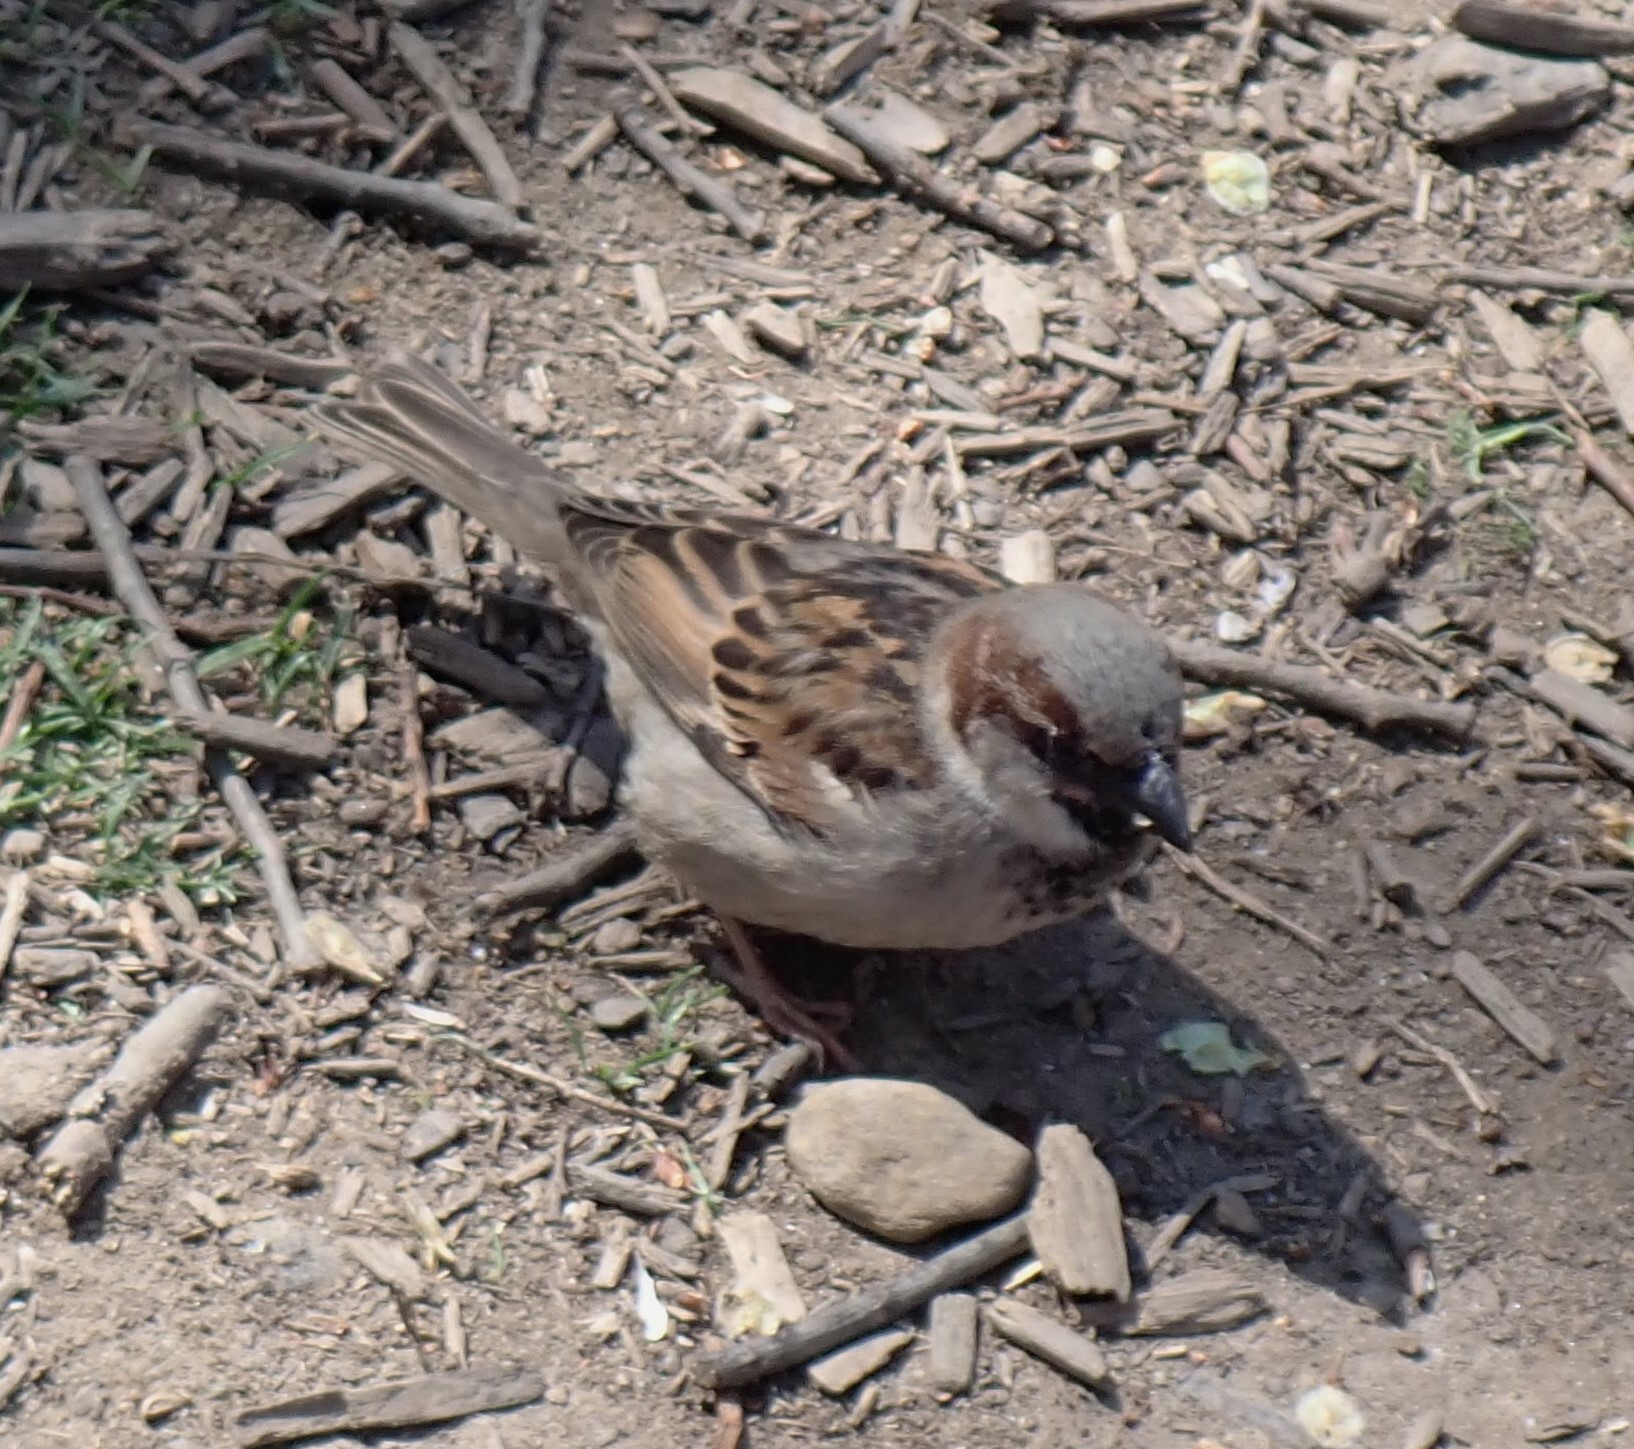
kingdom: Animalia
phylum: Chordata
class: Aves
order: Passeriformes
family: Passeridae
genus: Passer
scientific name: Passer domesticus
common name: House sparrow
